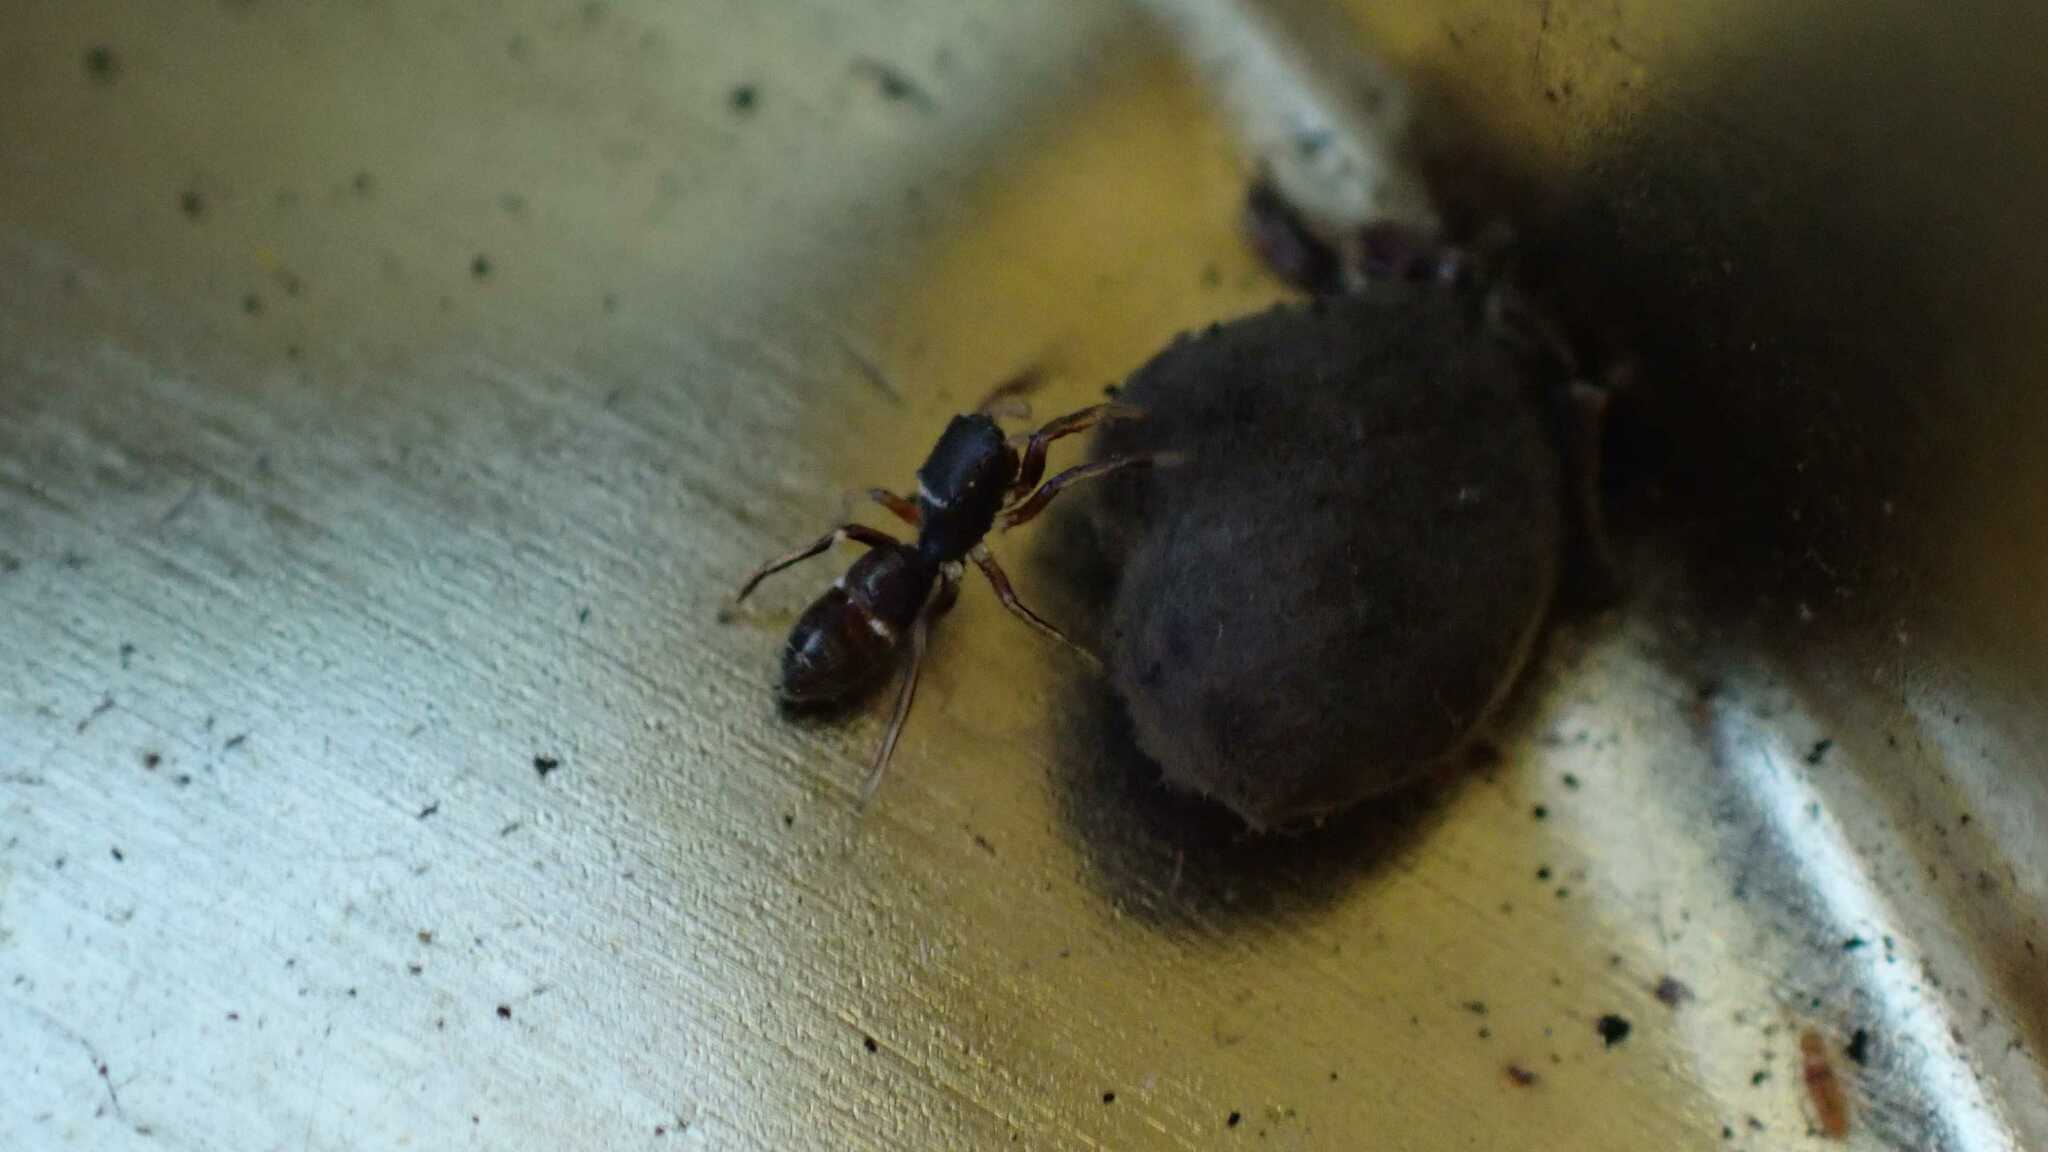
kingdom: Animalia
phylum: Arthropoda
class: Arachnida
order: Araneae
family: Salticidae
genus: Synageles
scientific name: Synageles venator
